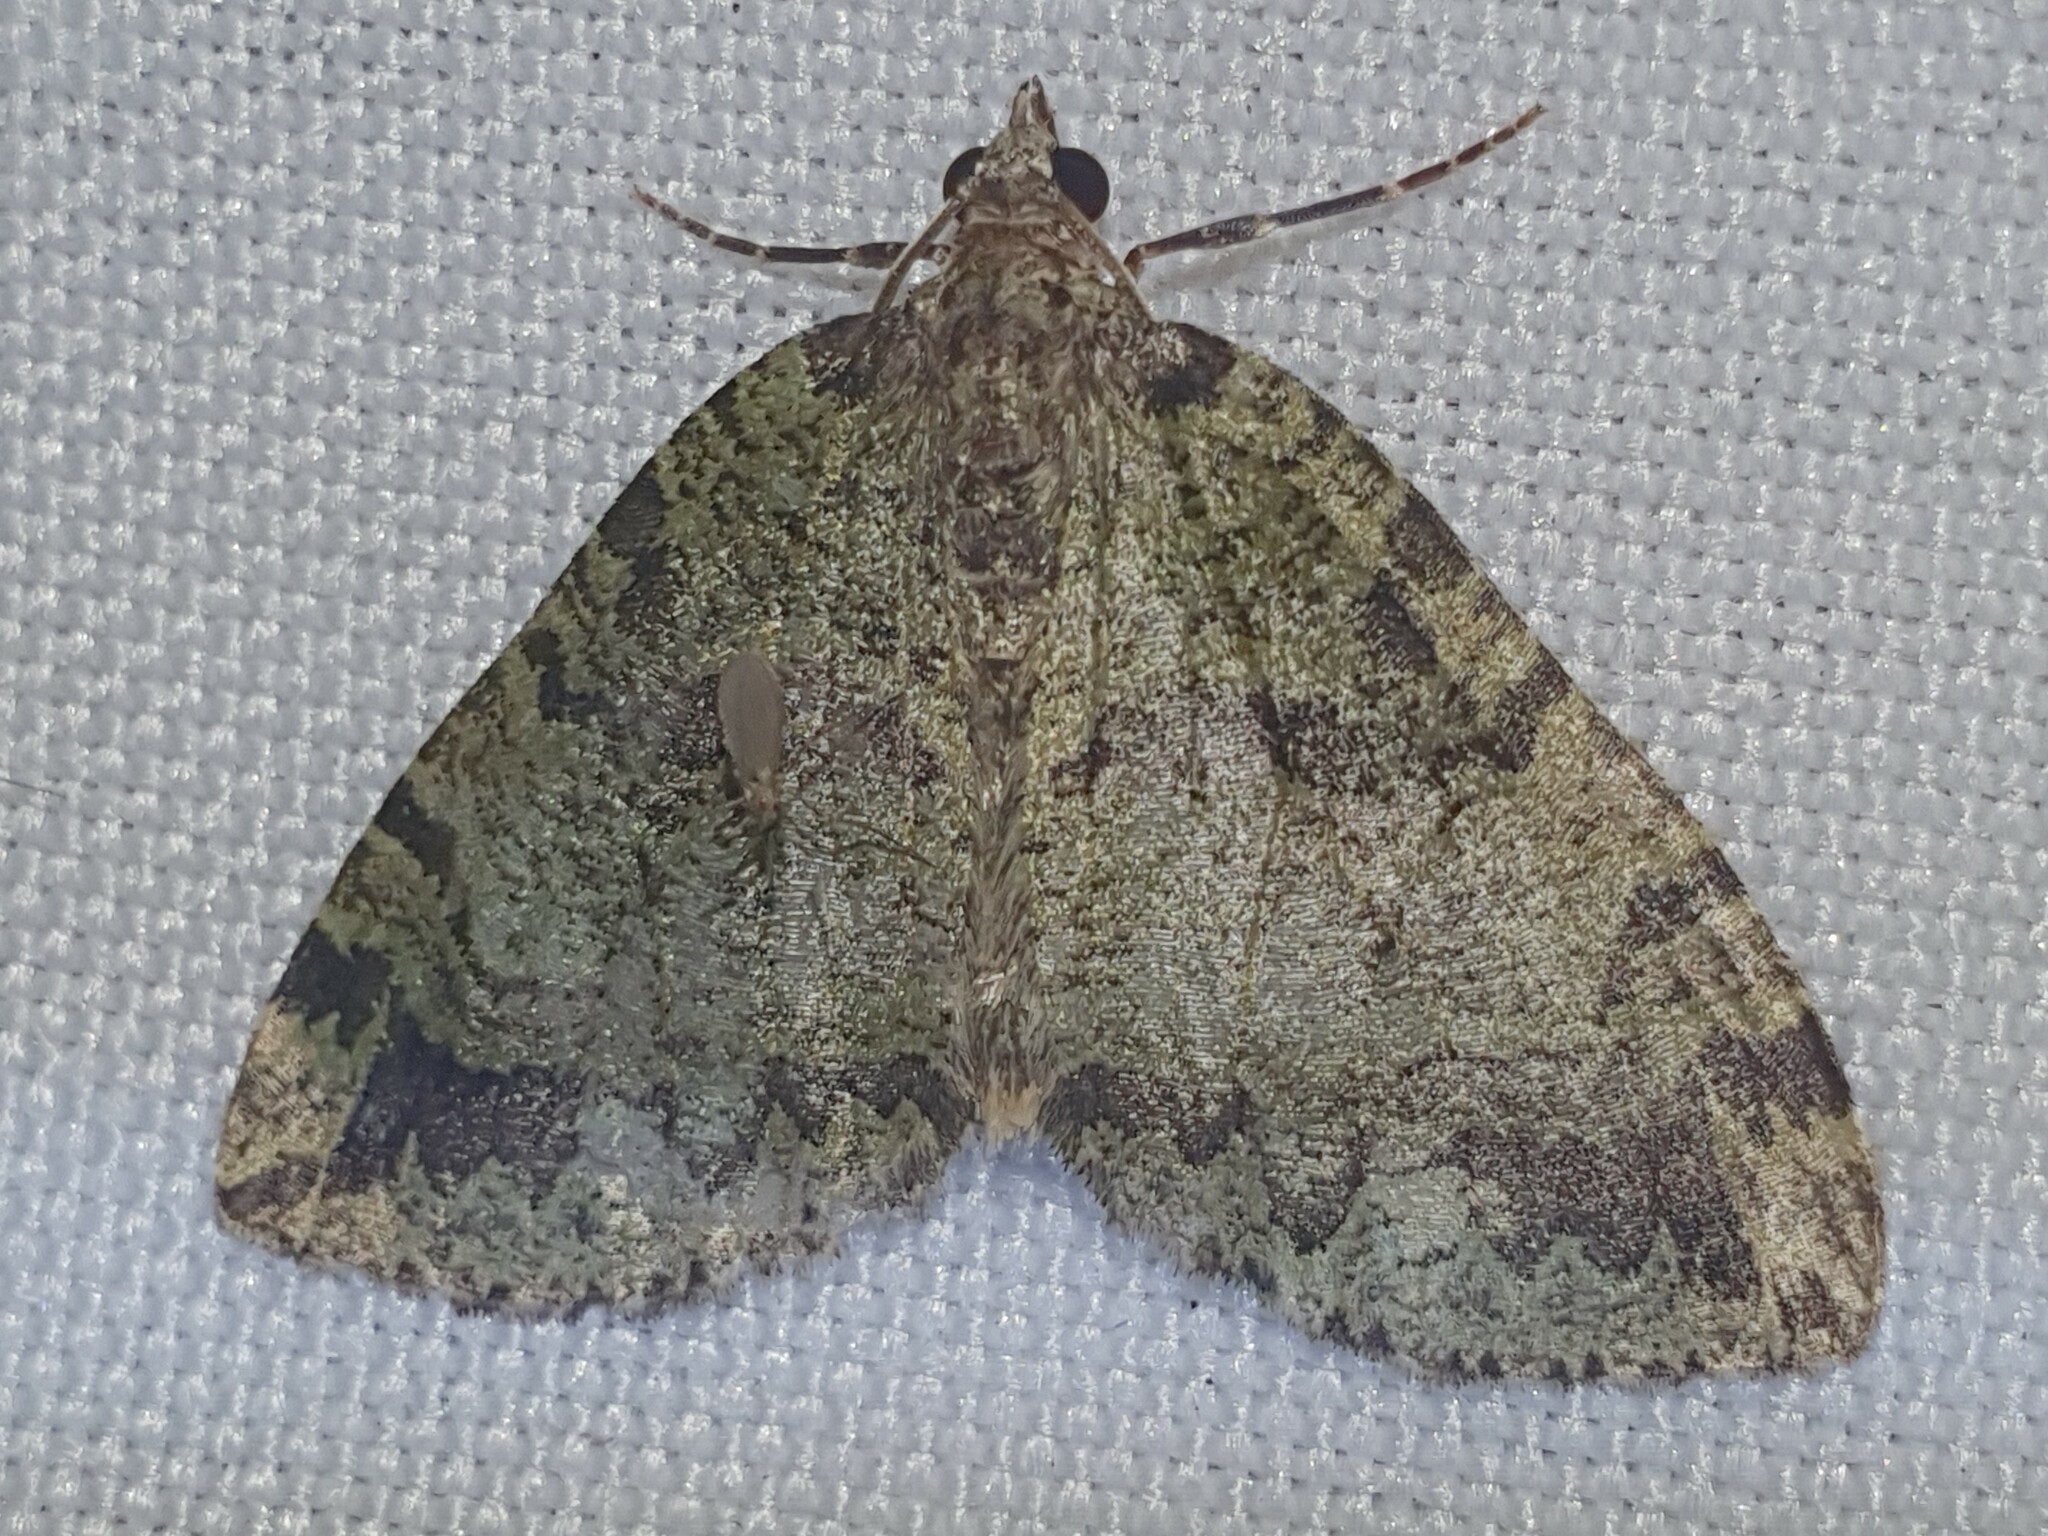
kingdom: Animalia
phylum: Arthropoda
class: Insecta
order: Lepidoptera
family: Geometridae
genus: Hydriomena
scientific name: Hydriomena furcata
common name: July highflyer
